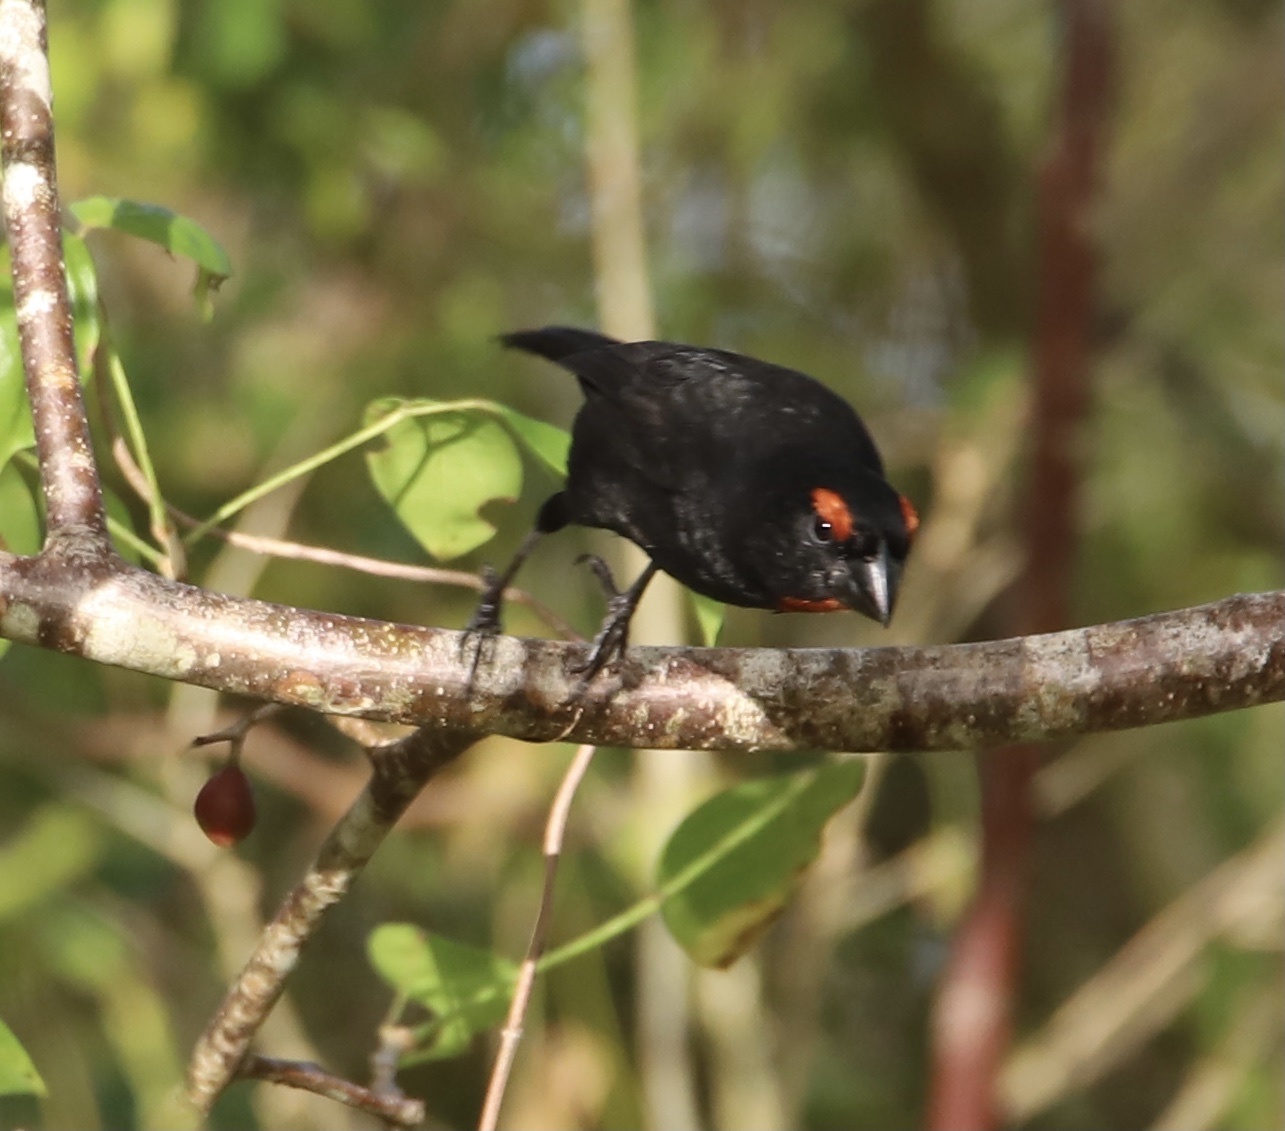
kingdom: Animalia
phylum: Chordata
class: Aves
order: Passeriformes
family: Thraupidae
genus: Melopyrrha
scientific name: Melopyrrha violacea
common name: Greater antillean bullfinch
